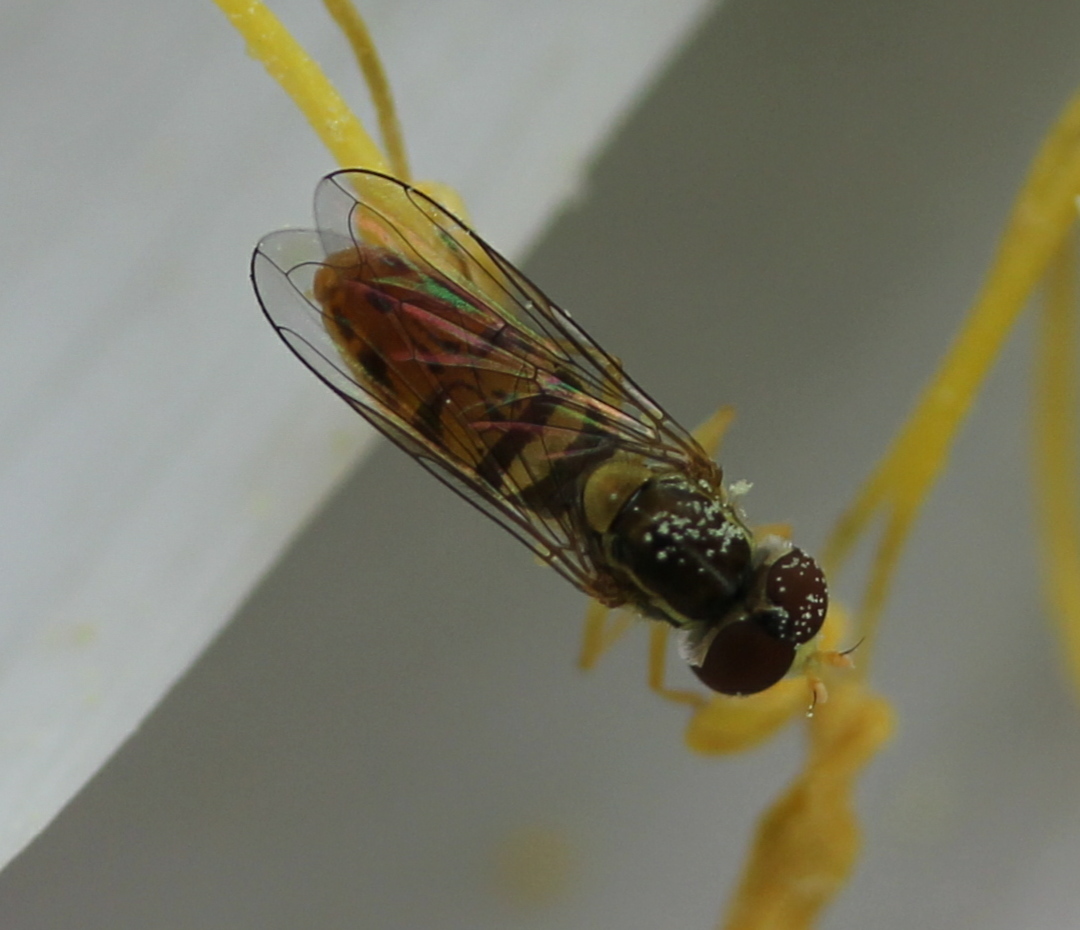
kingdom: Animalia
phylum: Arthropoda
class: Insecta
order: Diptera
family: Syrphidae
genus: Toxomerus
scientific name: Toxomerus marginatus
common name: Syrphid fly
